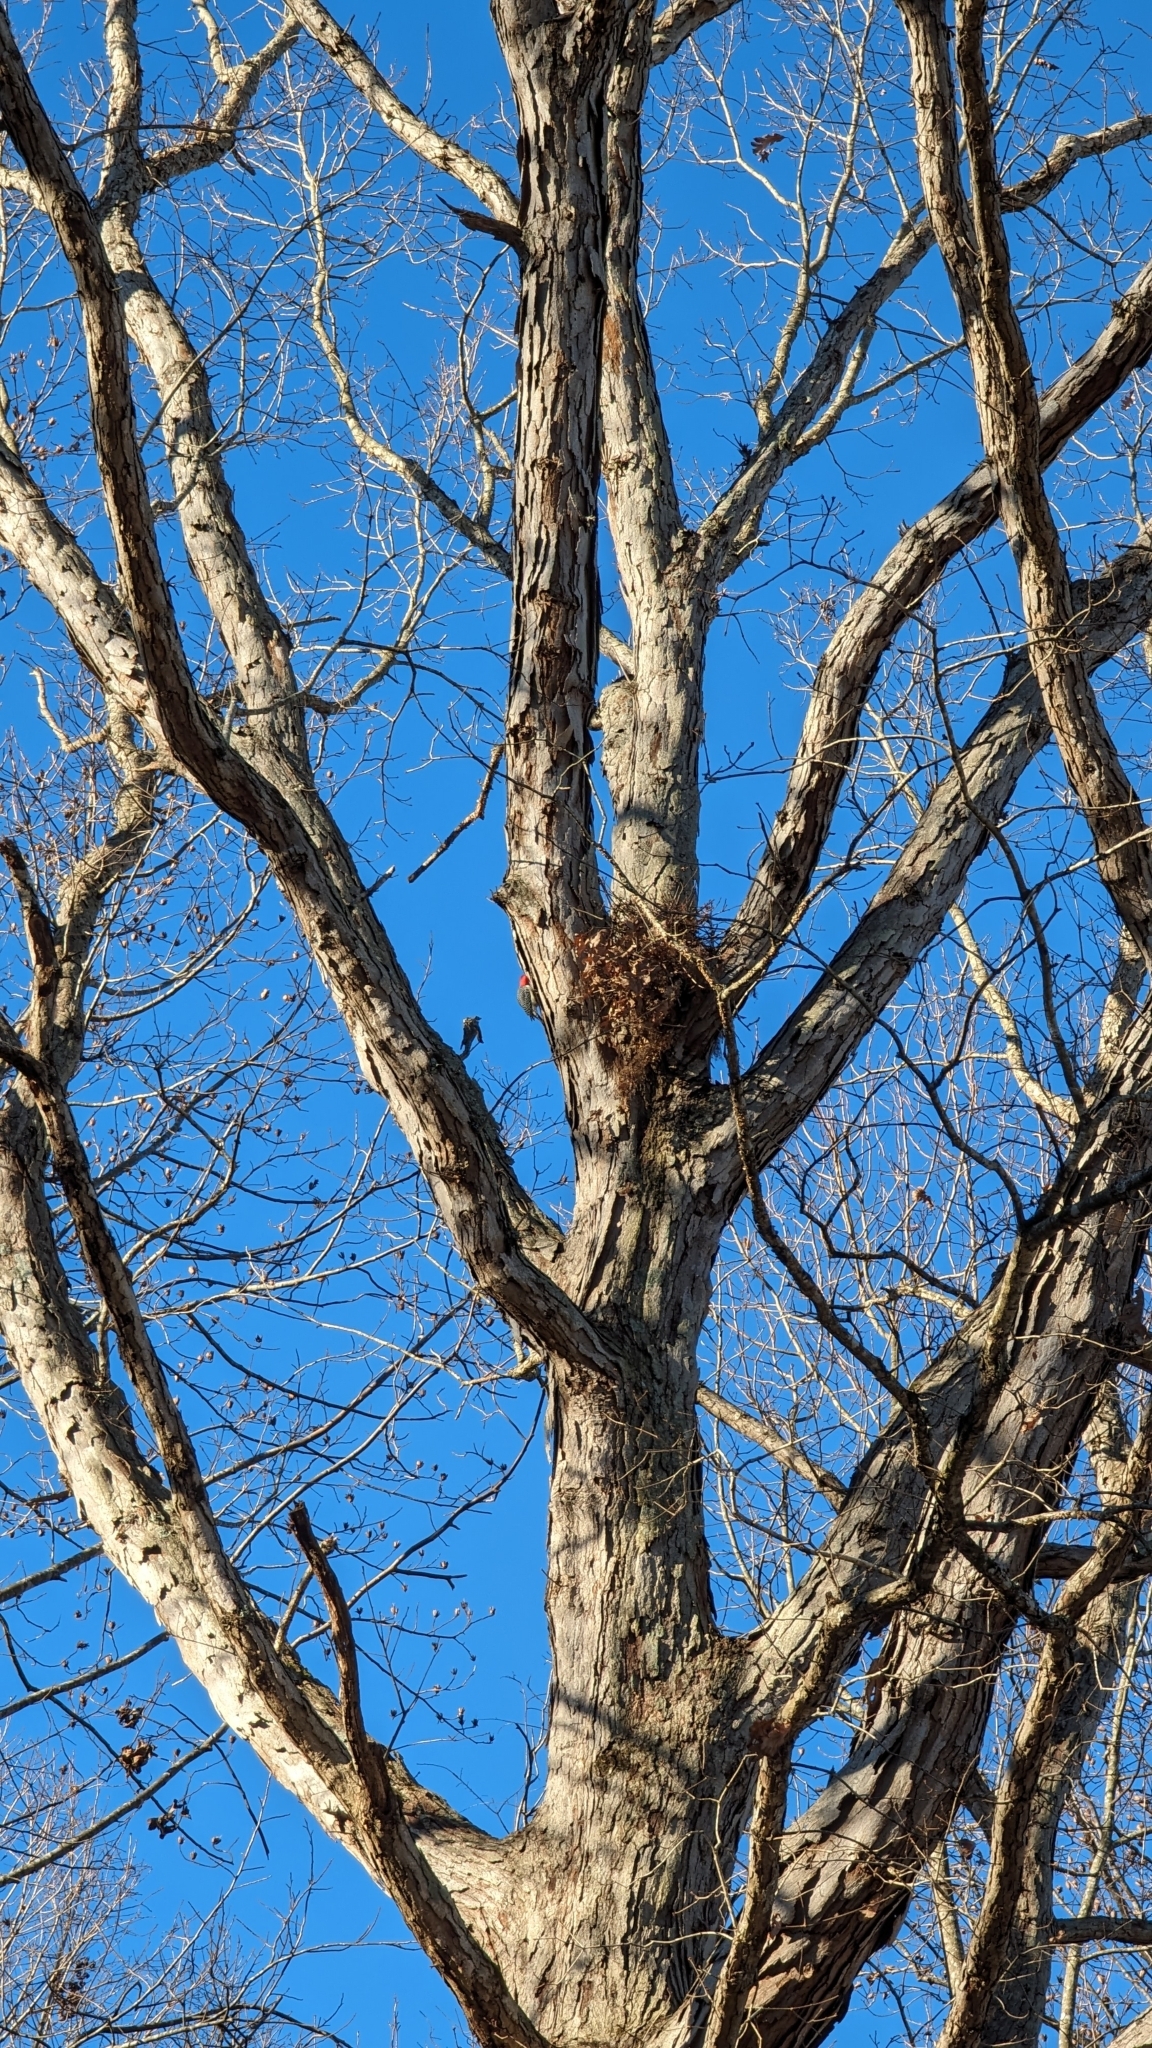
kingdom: Animalia
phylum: Chordata
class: Aves
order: Piciformes
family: Picidae
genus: Melanerpes
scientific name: Melanerpes carolinus
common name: Red-bellied woodpecker
